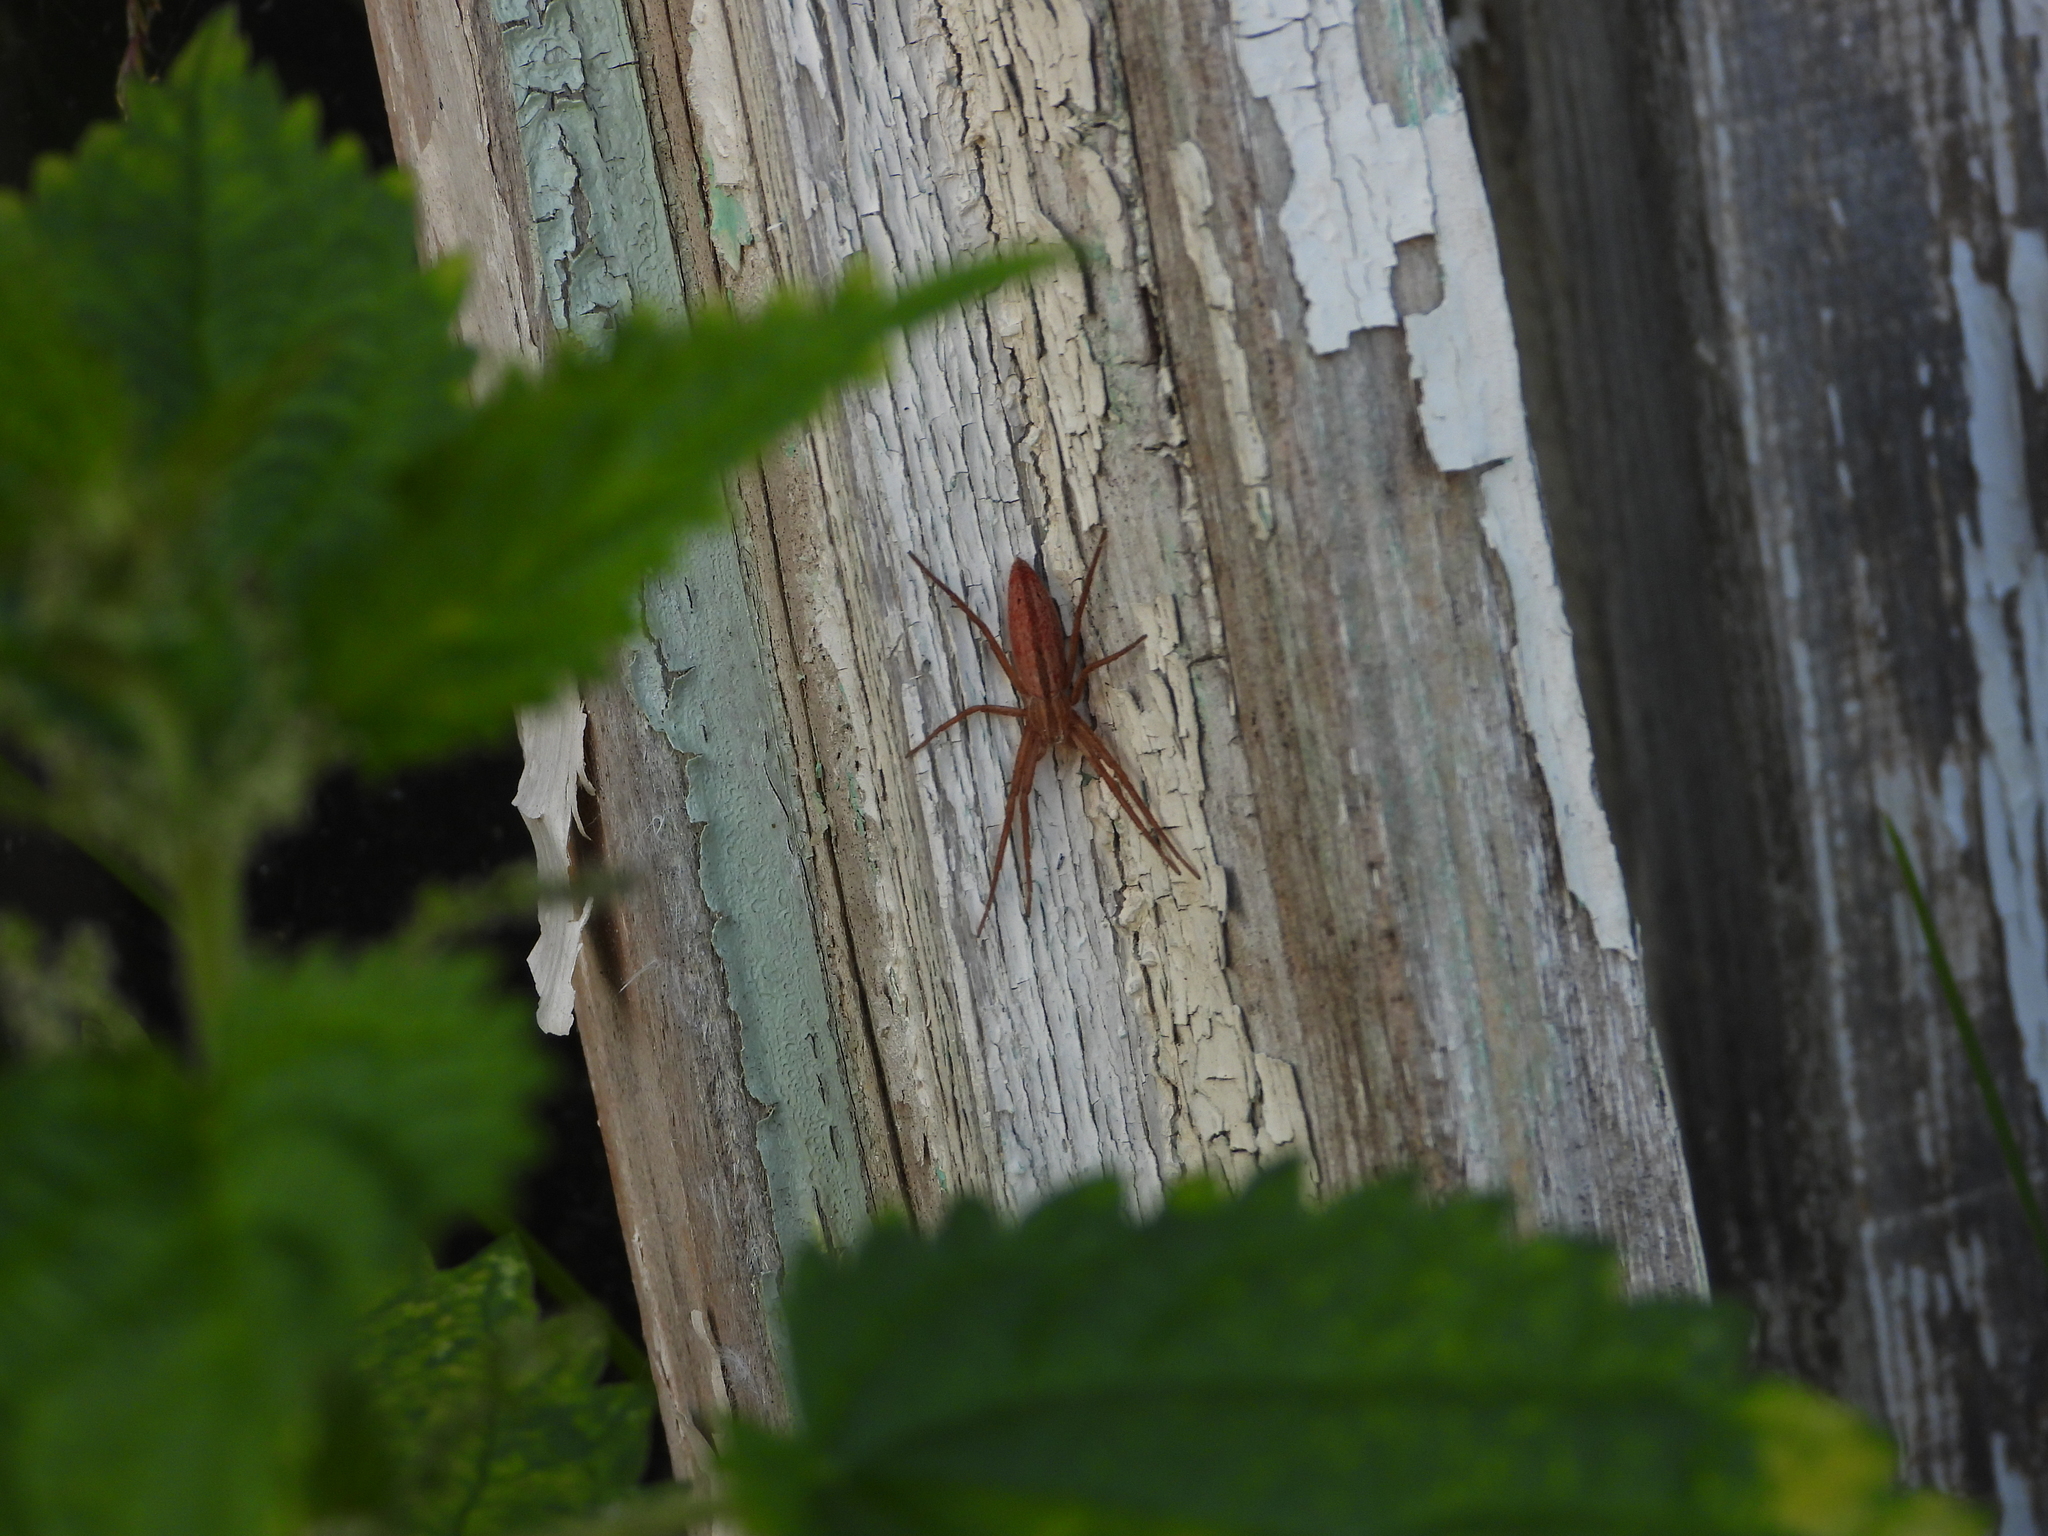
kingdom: Animalia
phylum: Arthropoda
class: Arachnida
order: Araneae
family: Philodromidae
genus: Tibellus
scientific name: Tibellus
